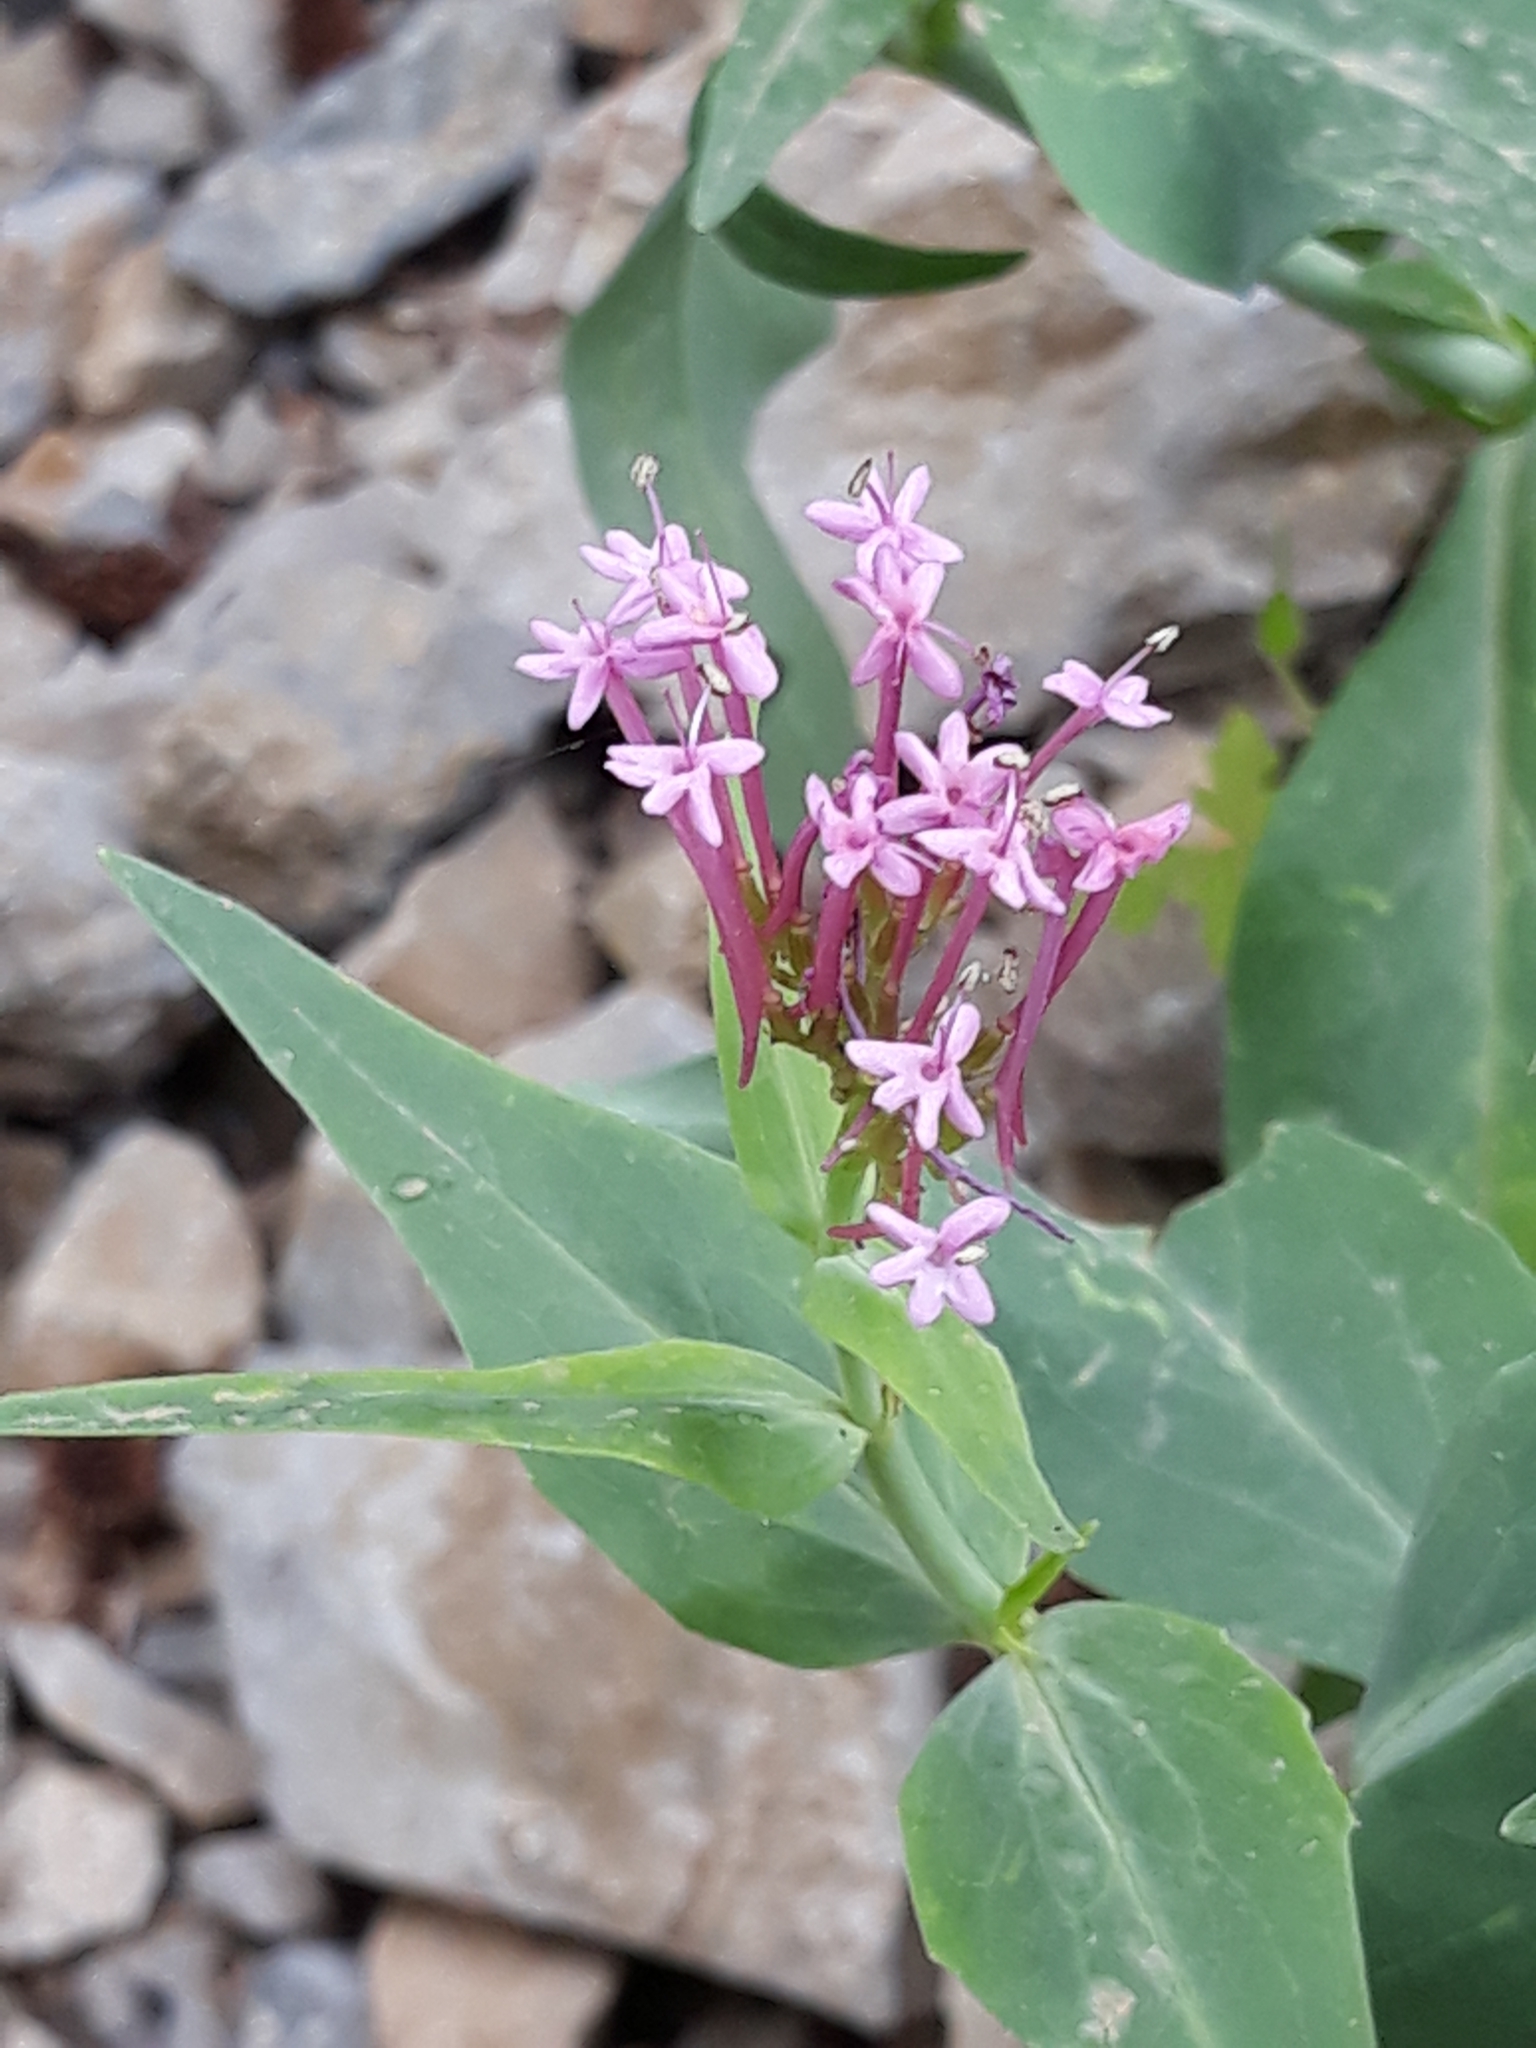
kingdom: Plantae
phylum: Tracheophyta
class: Magnoliopsida
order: Dipsacales
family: Caprifoliaceae
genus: Centranthus
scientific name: Centranthus ruber
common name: Red valerian
